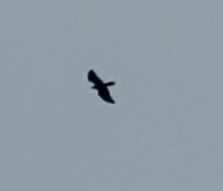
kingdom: Animalia
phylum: Chordata
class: Aves
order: Accipitriformes
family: Accipitridae
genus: Pernis
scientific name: Pernis apivorus
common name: European honey buzzard
